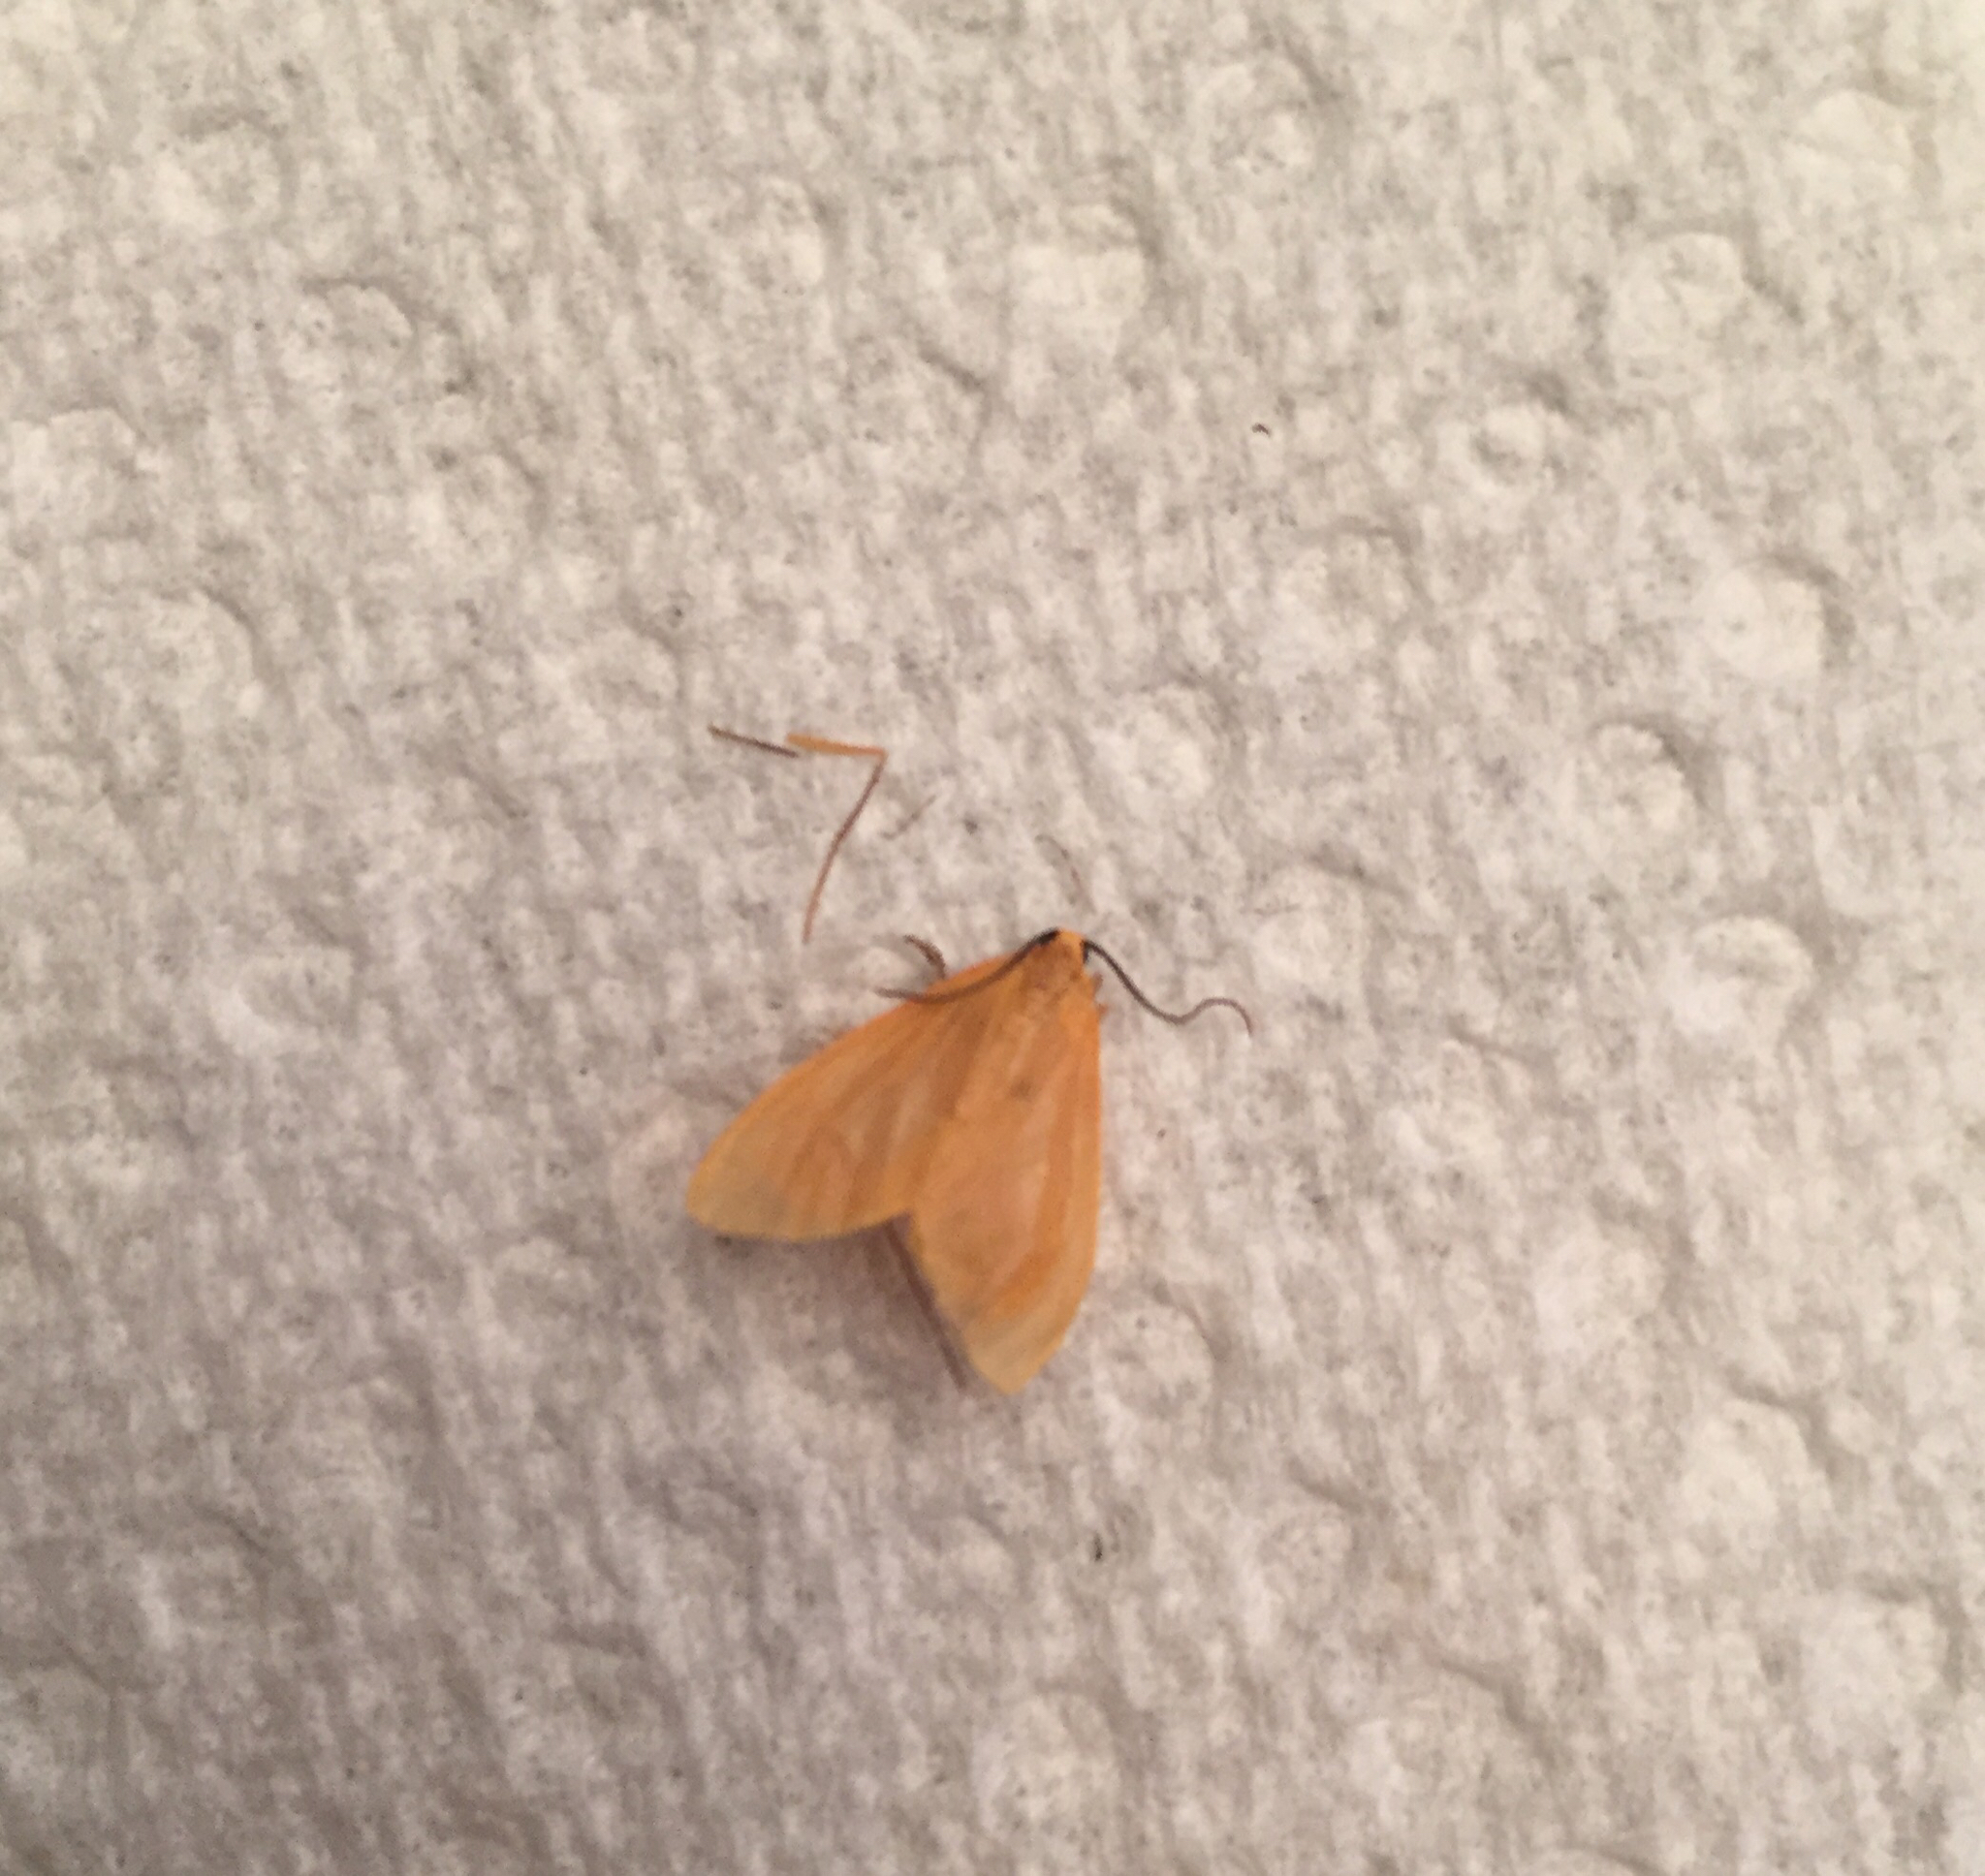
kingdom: Animalia
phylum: Arthropoda
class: Insecta
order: Lepidoptera
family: Geometridae
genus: Eubaphe
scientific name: Eubaphe unicolor
